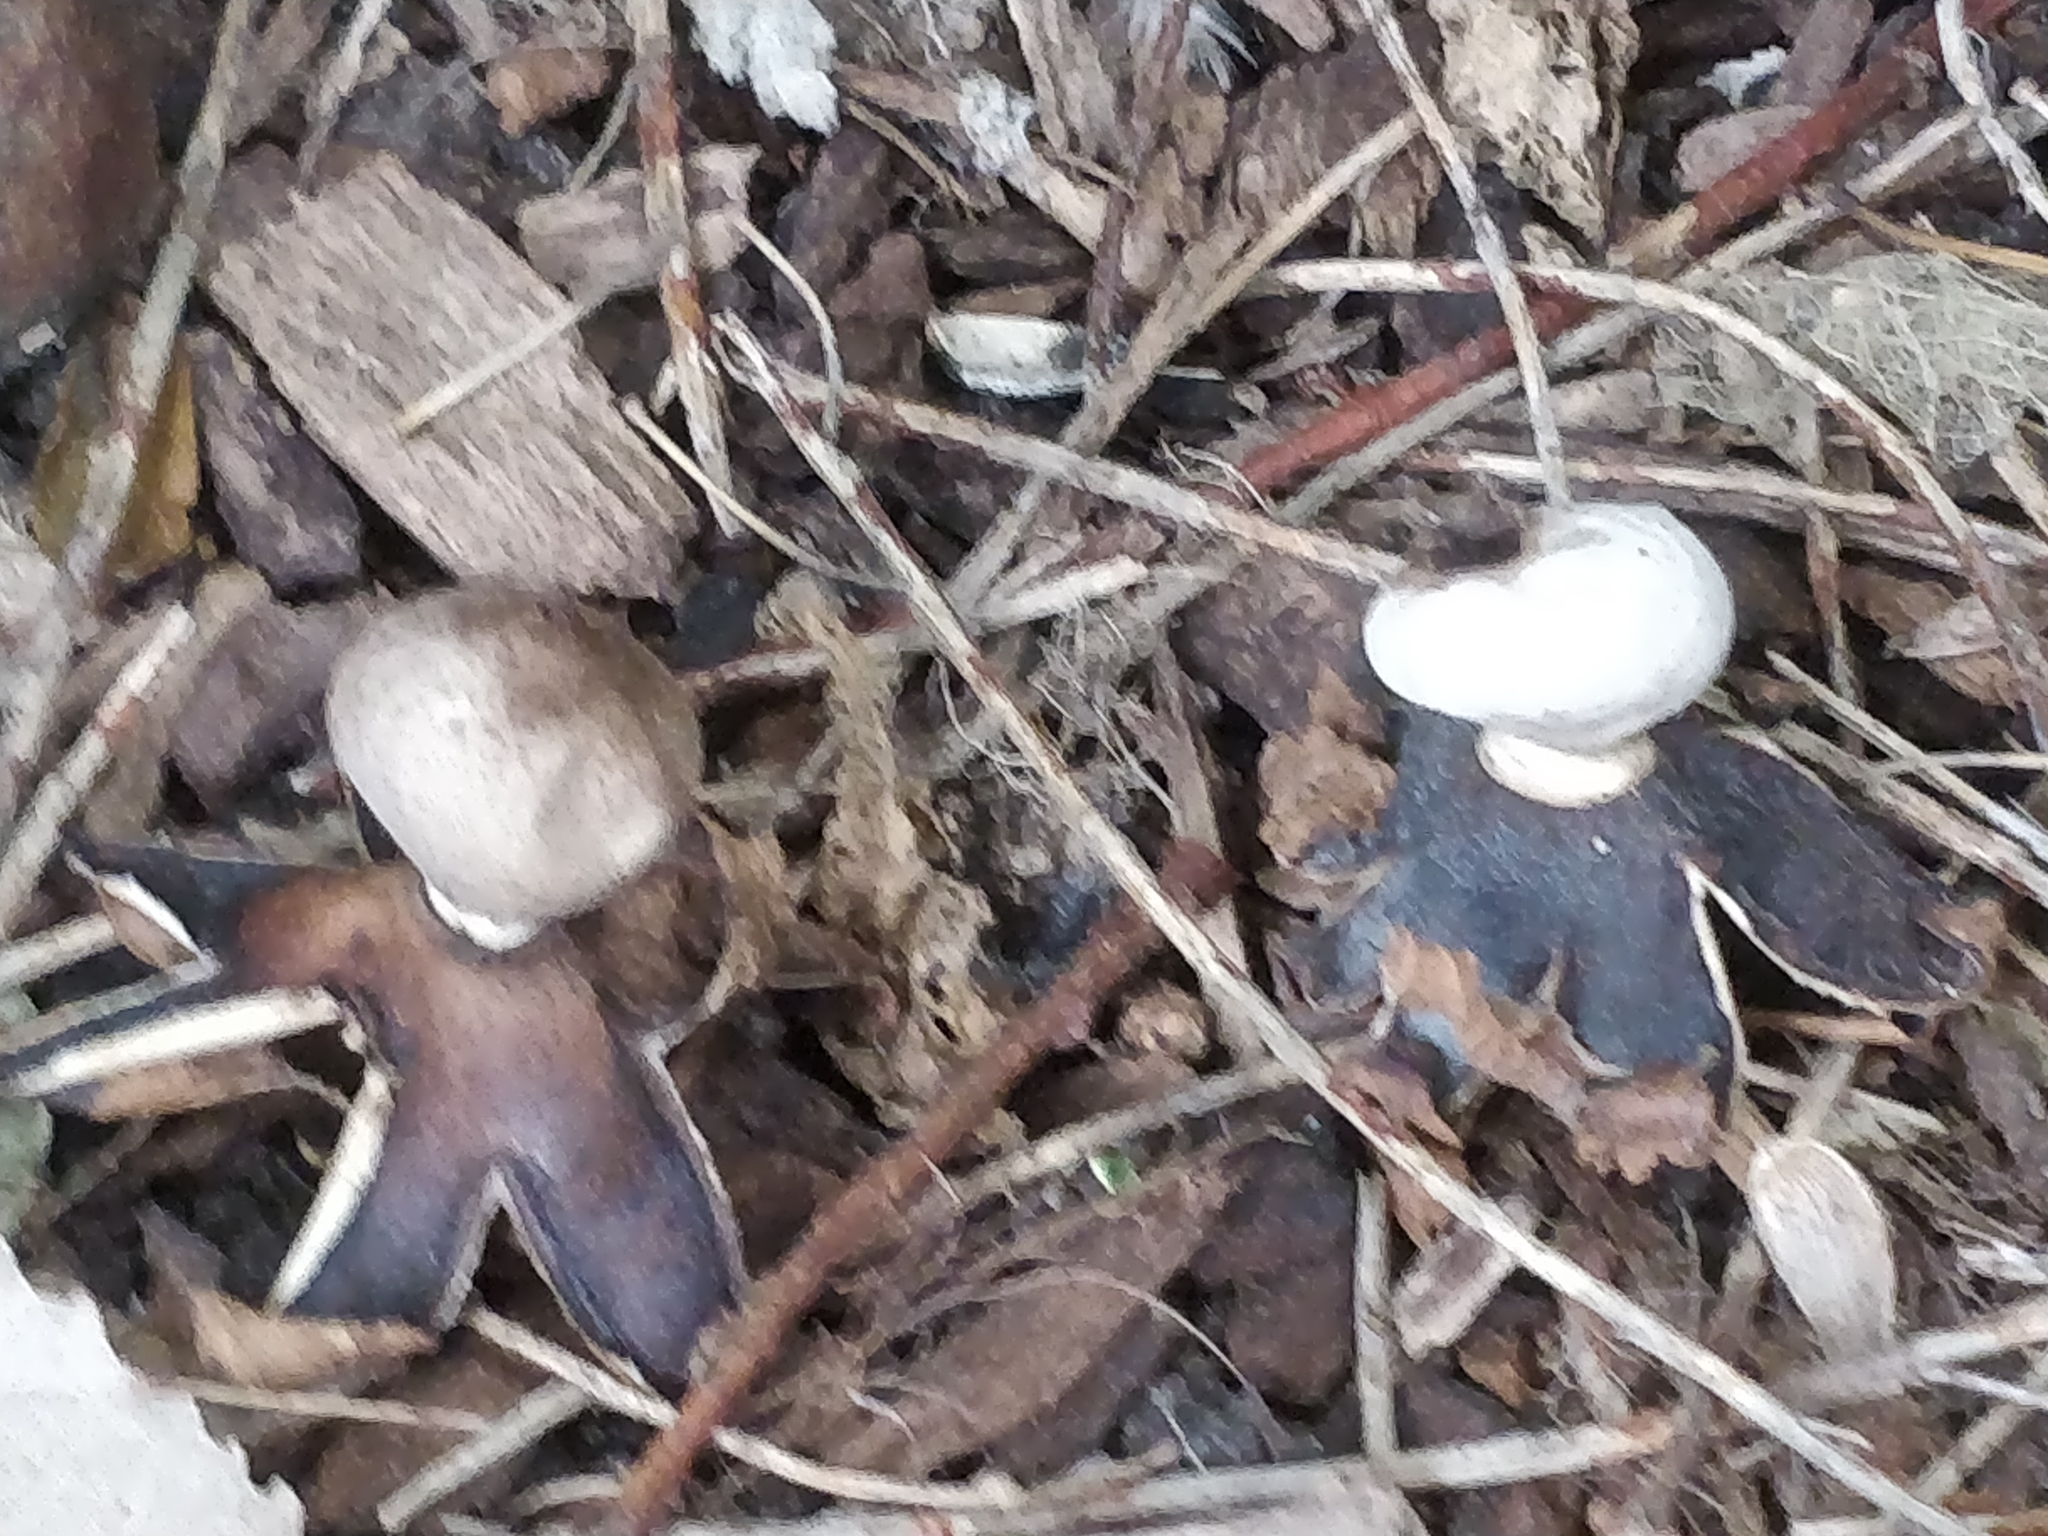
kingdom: Fungi
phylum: Basidiomycota
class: Agaricomycetes
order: Geastrales
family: Geastraceae
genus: Geastrum
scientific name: Geastrum
